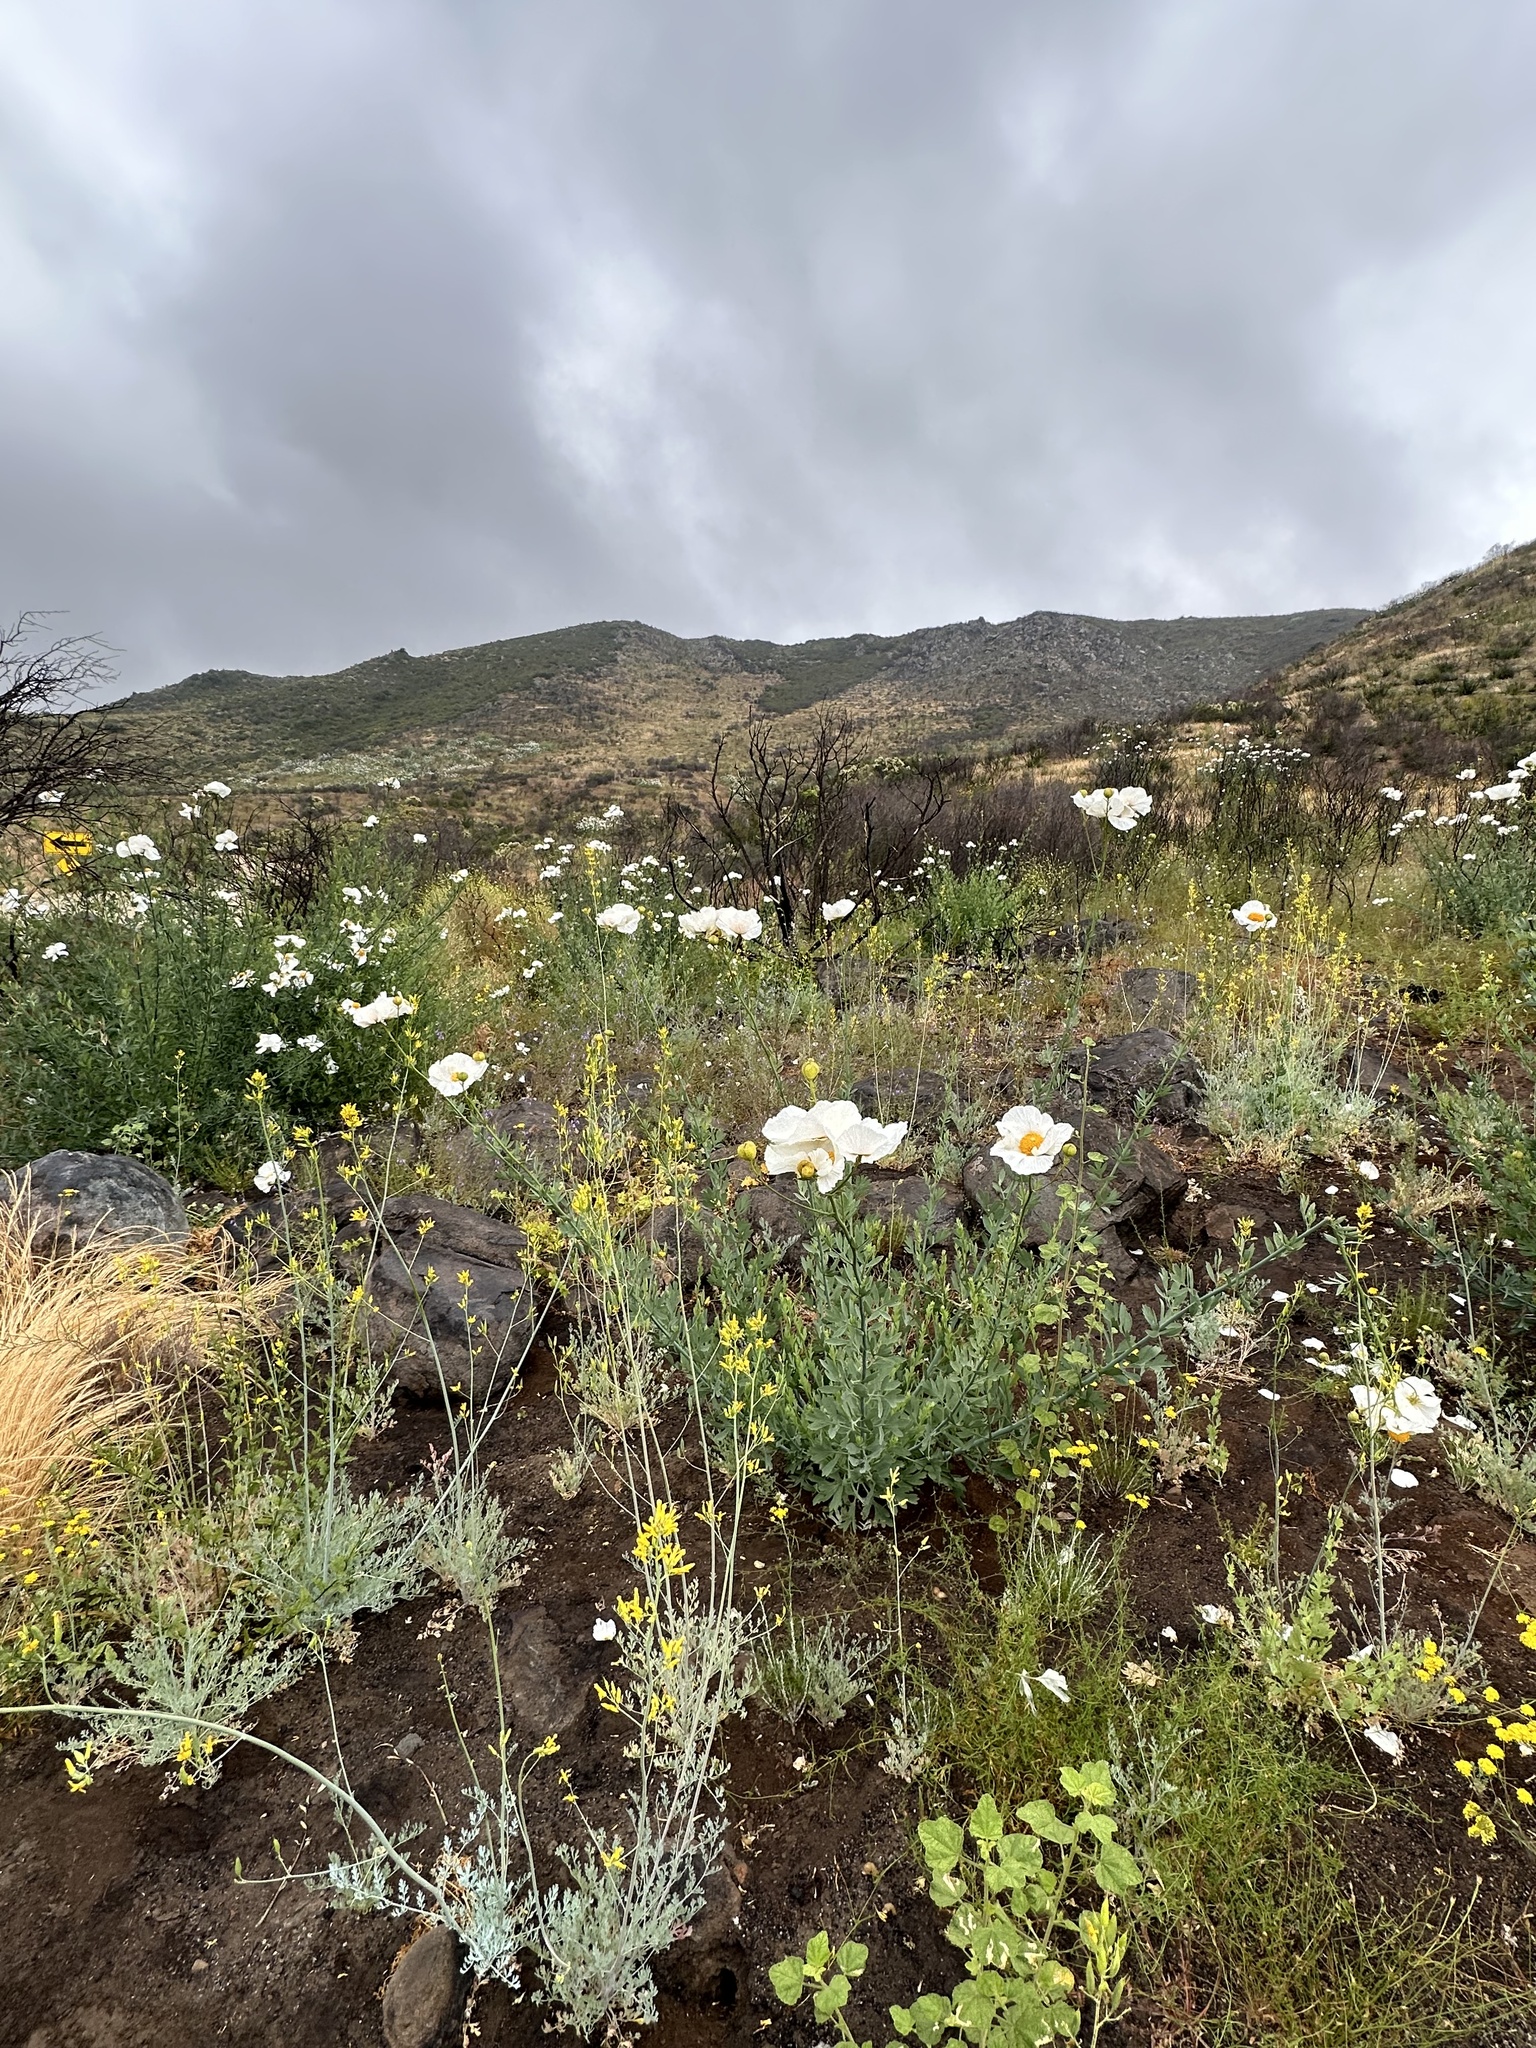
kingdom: Plantae
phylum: Tracheophyta
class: Magnoliopsida
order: Ranunculales
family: Papaveraceae
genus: Romneya
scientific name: Romneya trichocalyx
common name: Hairy matilija-poppy
